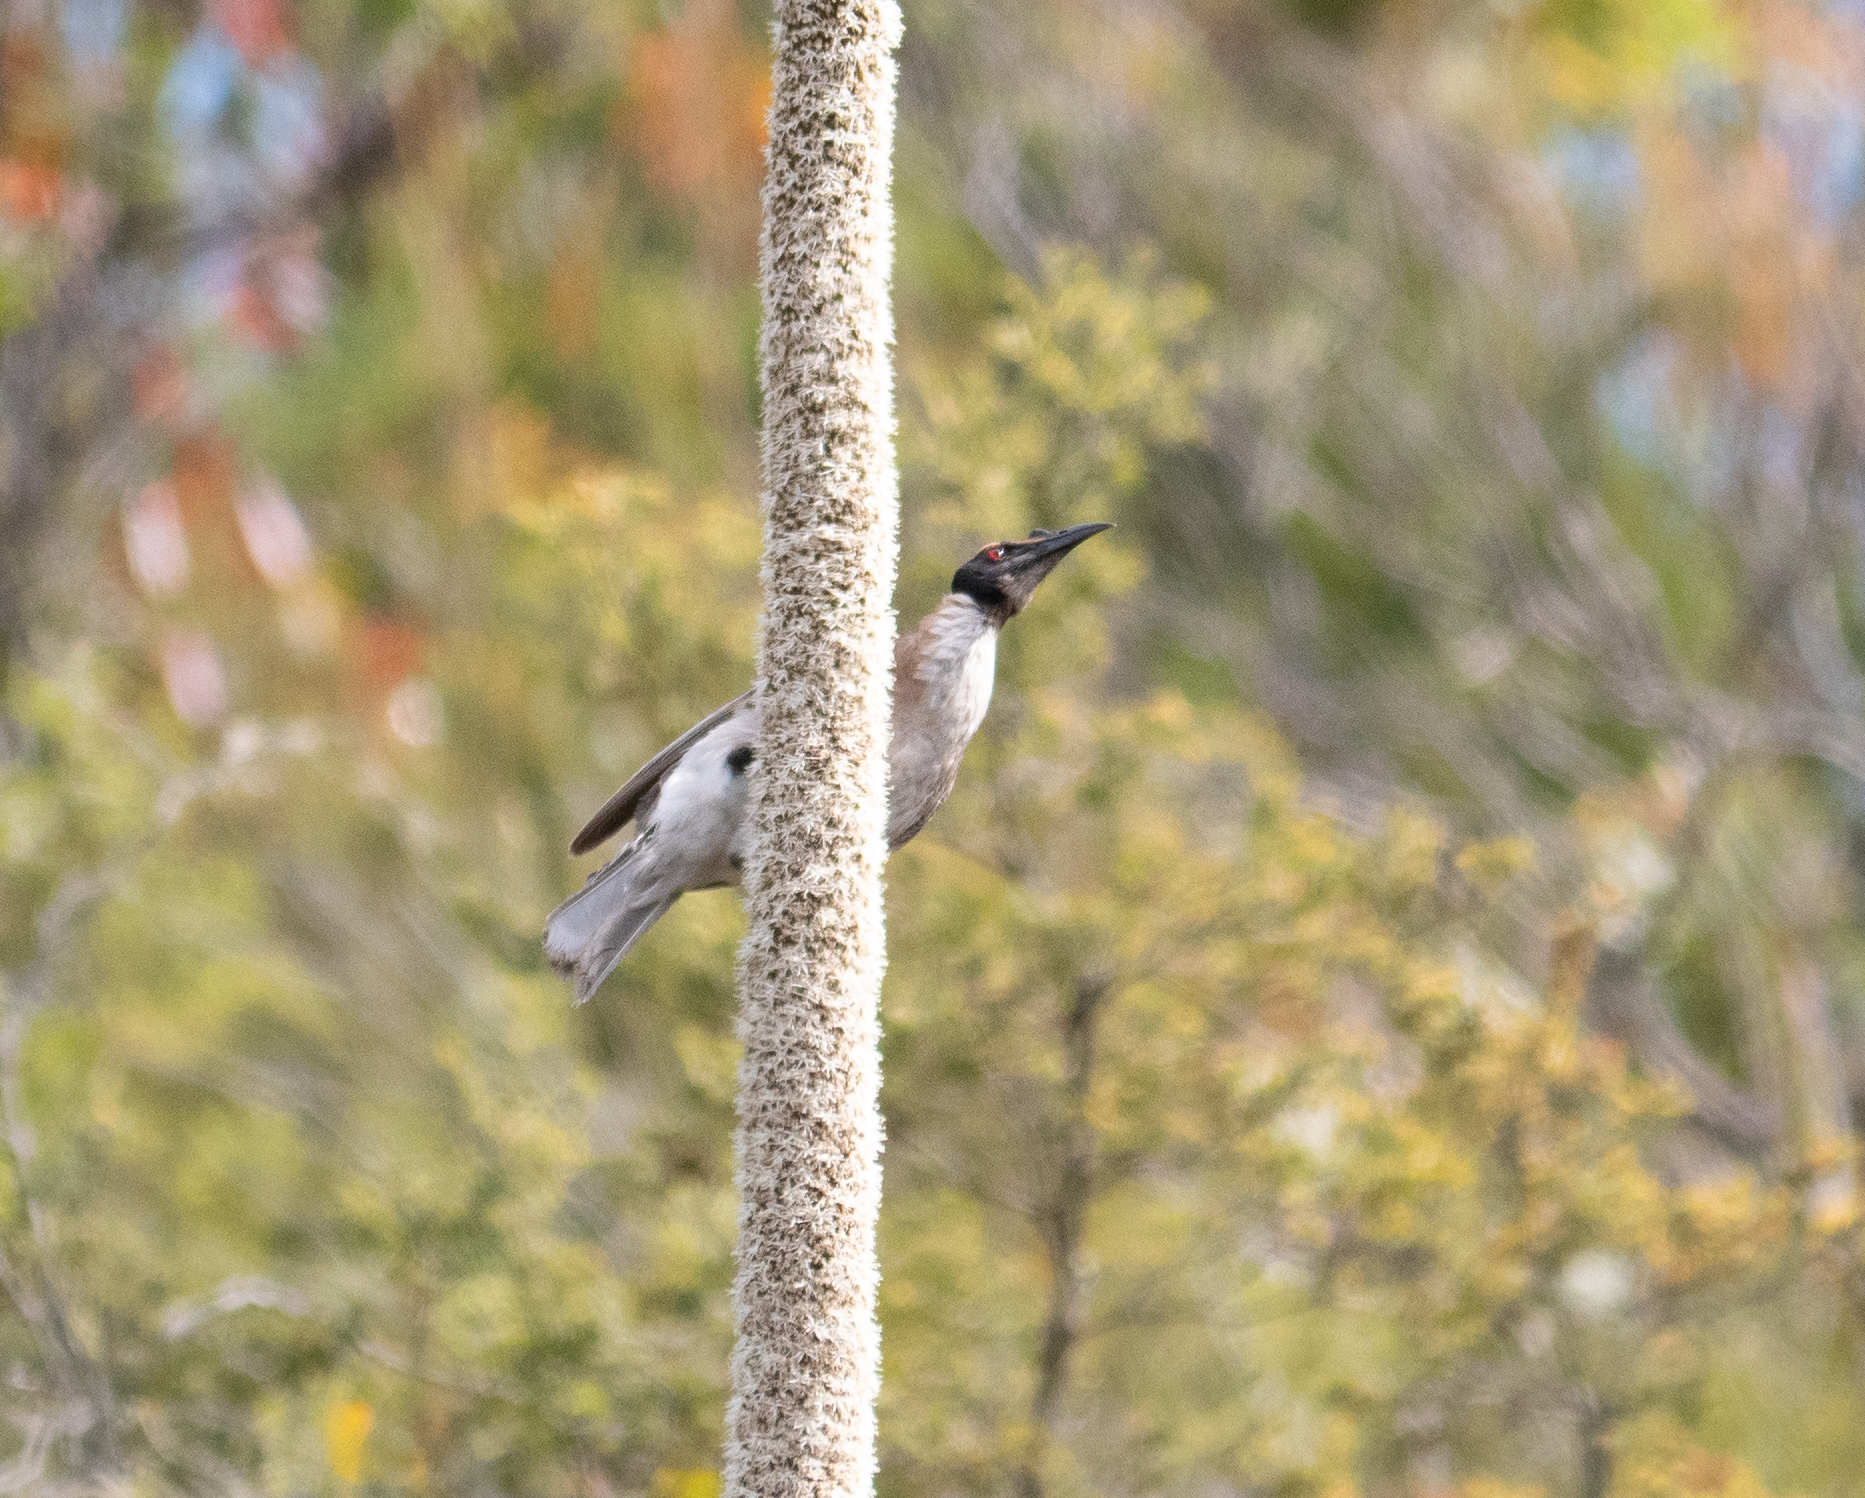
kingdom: Animalia
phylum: Chordata
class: Aves
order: Passeriformes
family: Meliphagidae
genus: Philemon
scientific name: Philemon corniculatus
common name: Noisy friarbird
